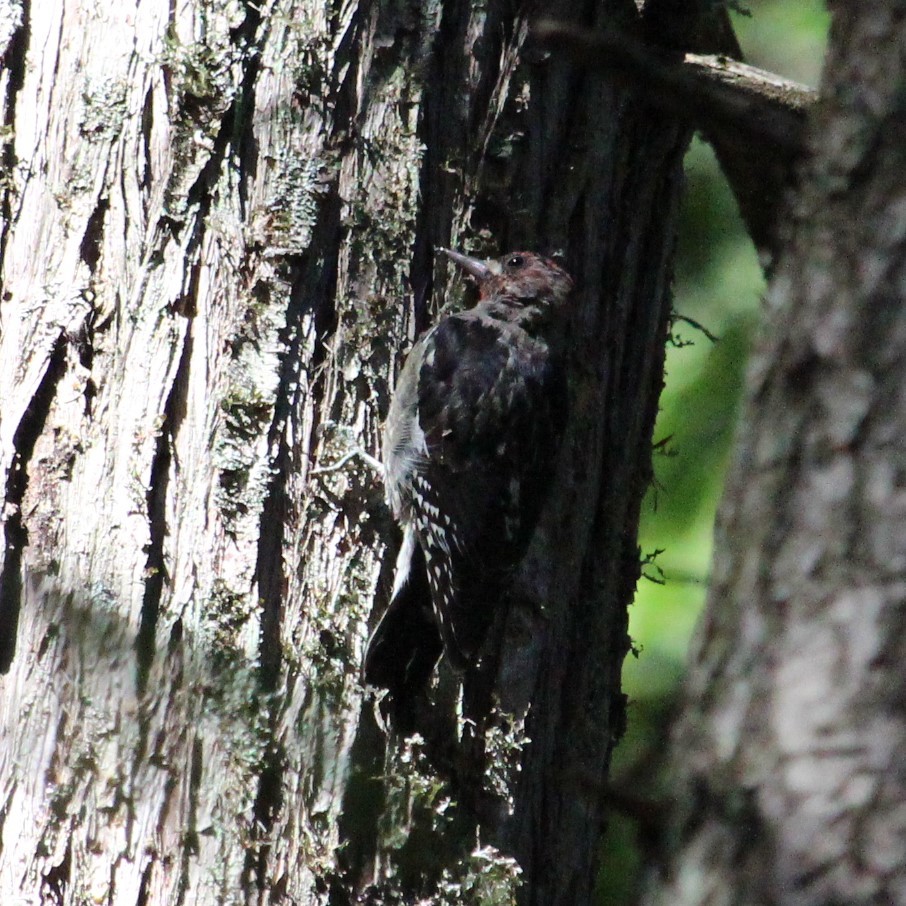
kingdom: Animalia
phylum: Chordata
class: Aves
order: Piciformes
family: Picidae
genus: Sphyrapicus
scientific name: Sphyrapicus ruber
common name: Red-breasted sapsucker
